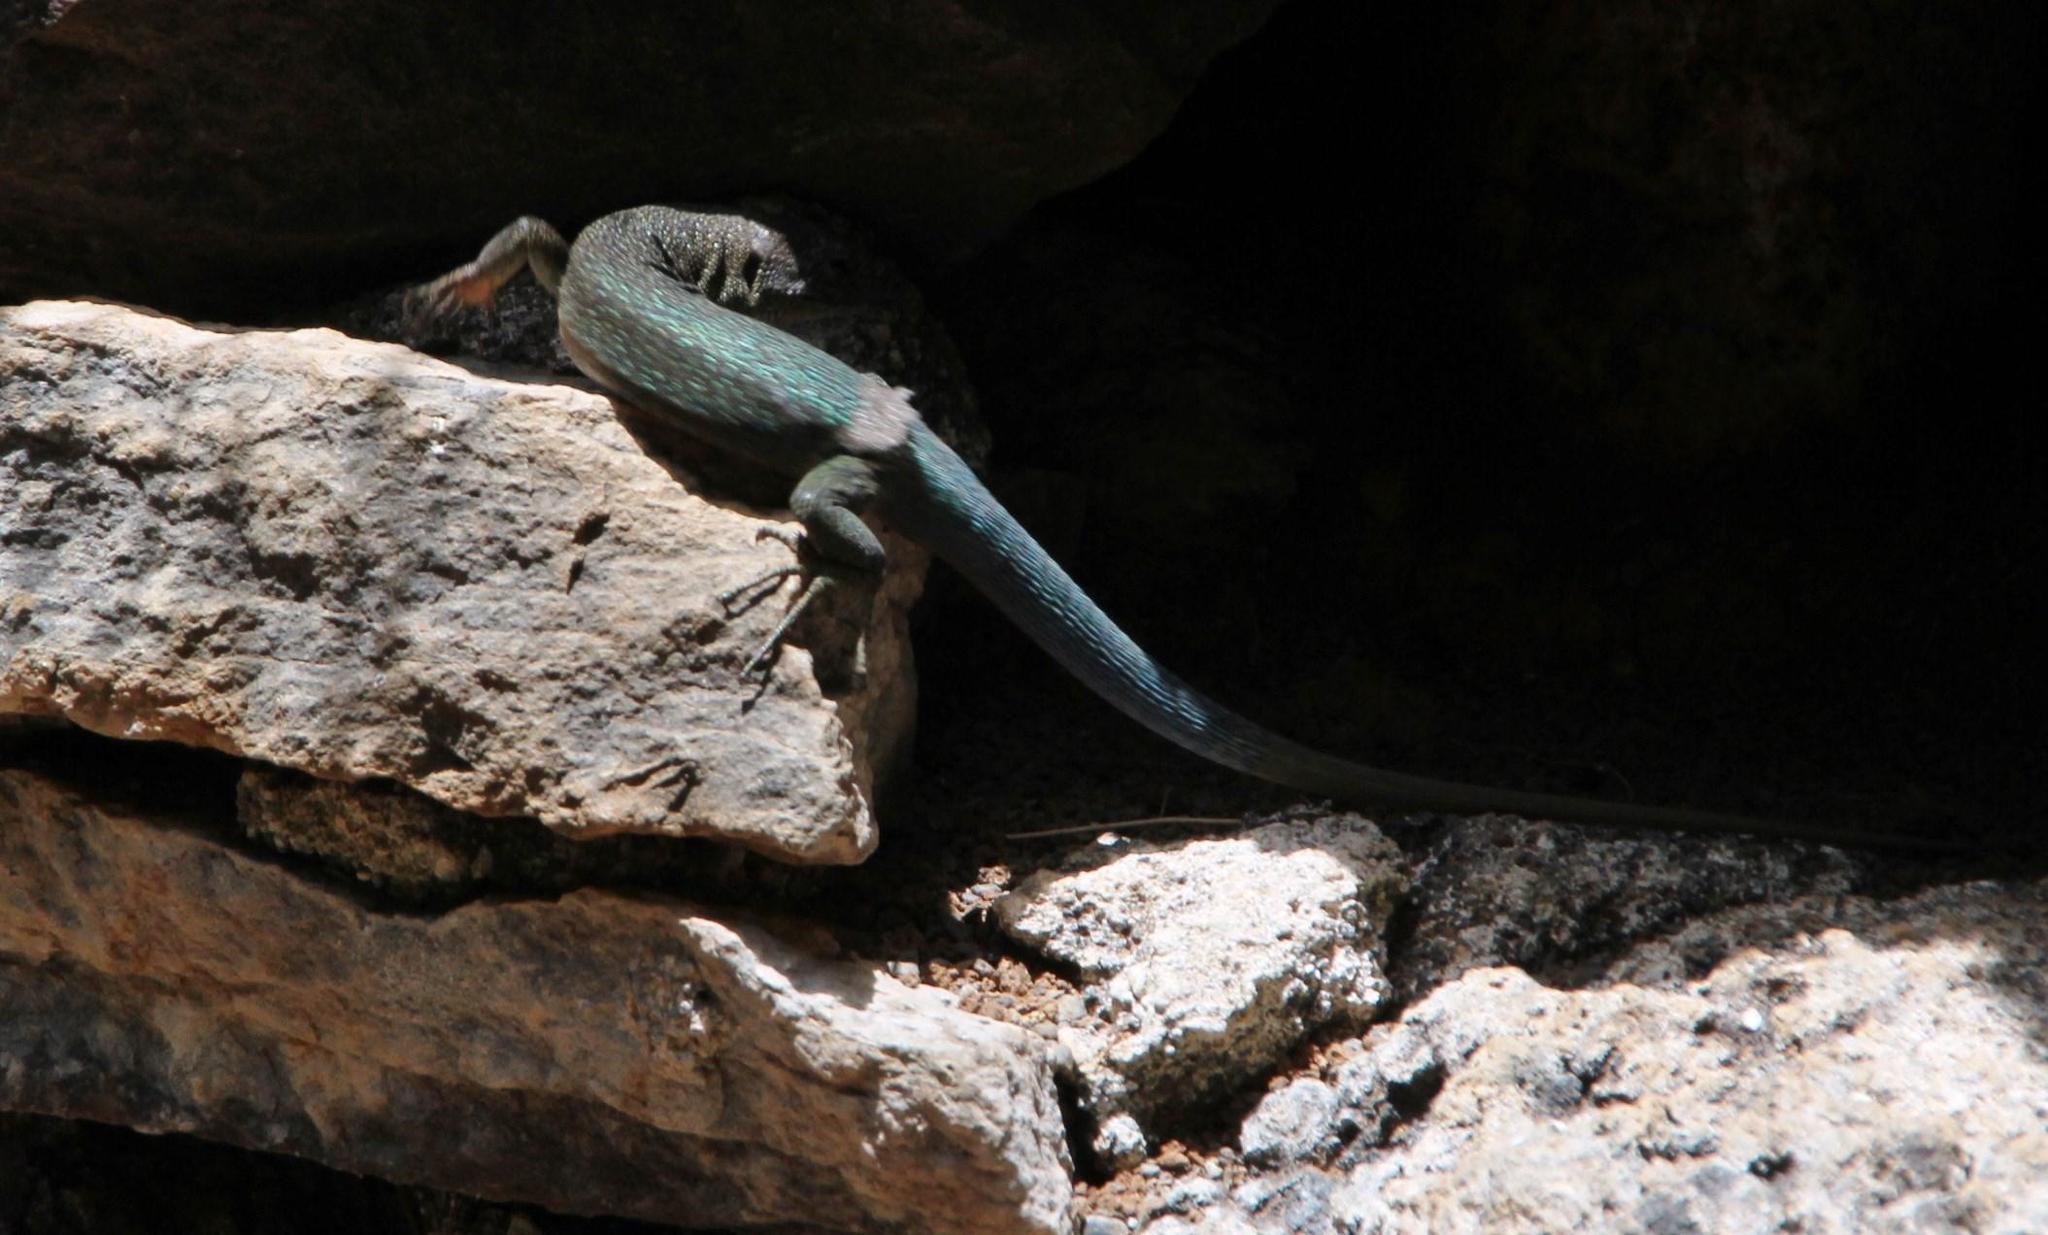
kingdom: Animalia
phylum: Chordata
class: Squamata
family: Lacertidae
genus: Teira
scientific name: Teira dugesii
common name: Madeira lizard
